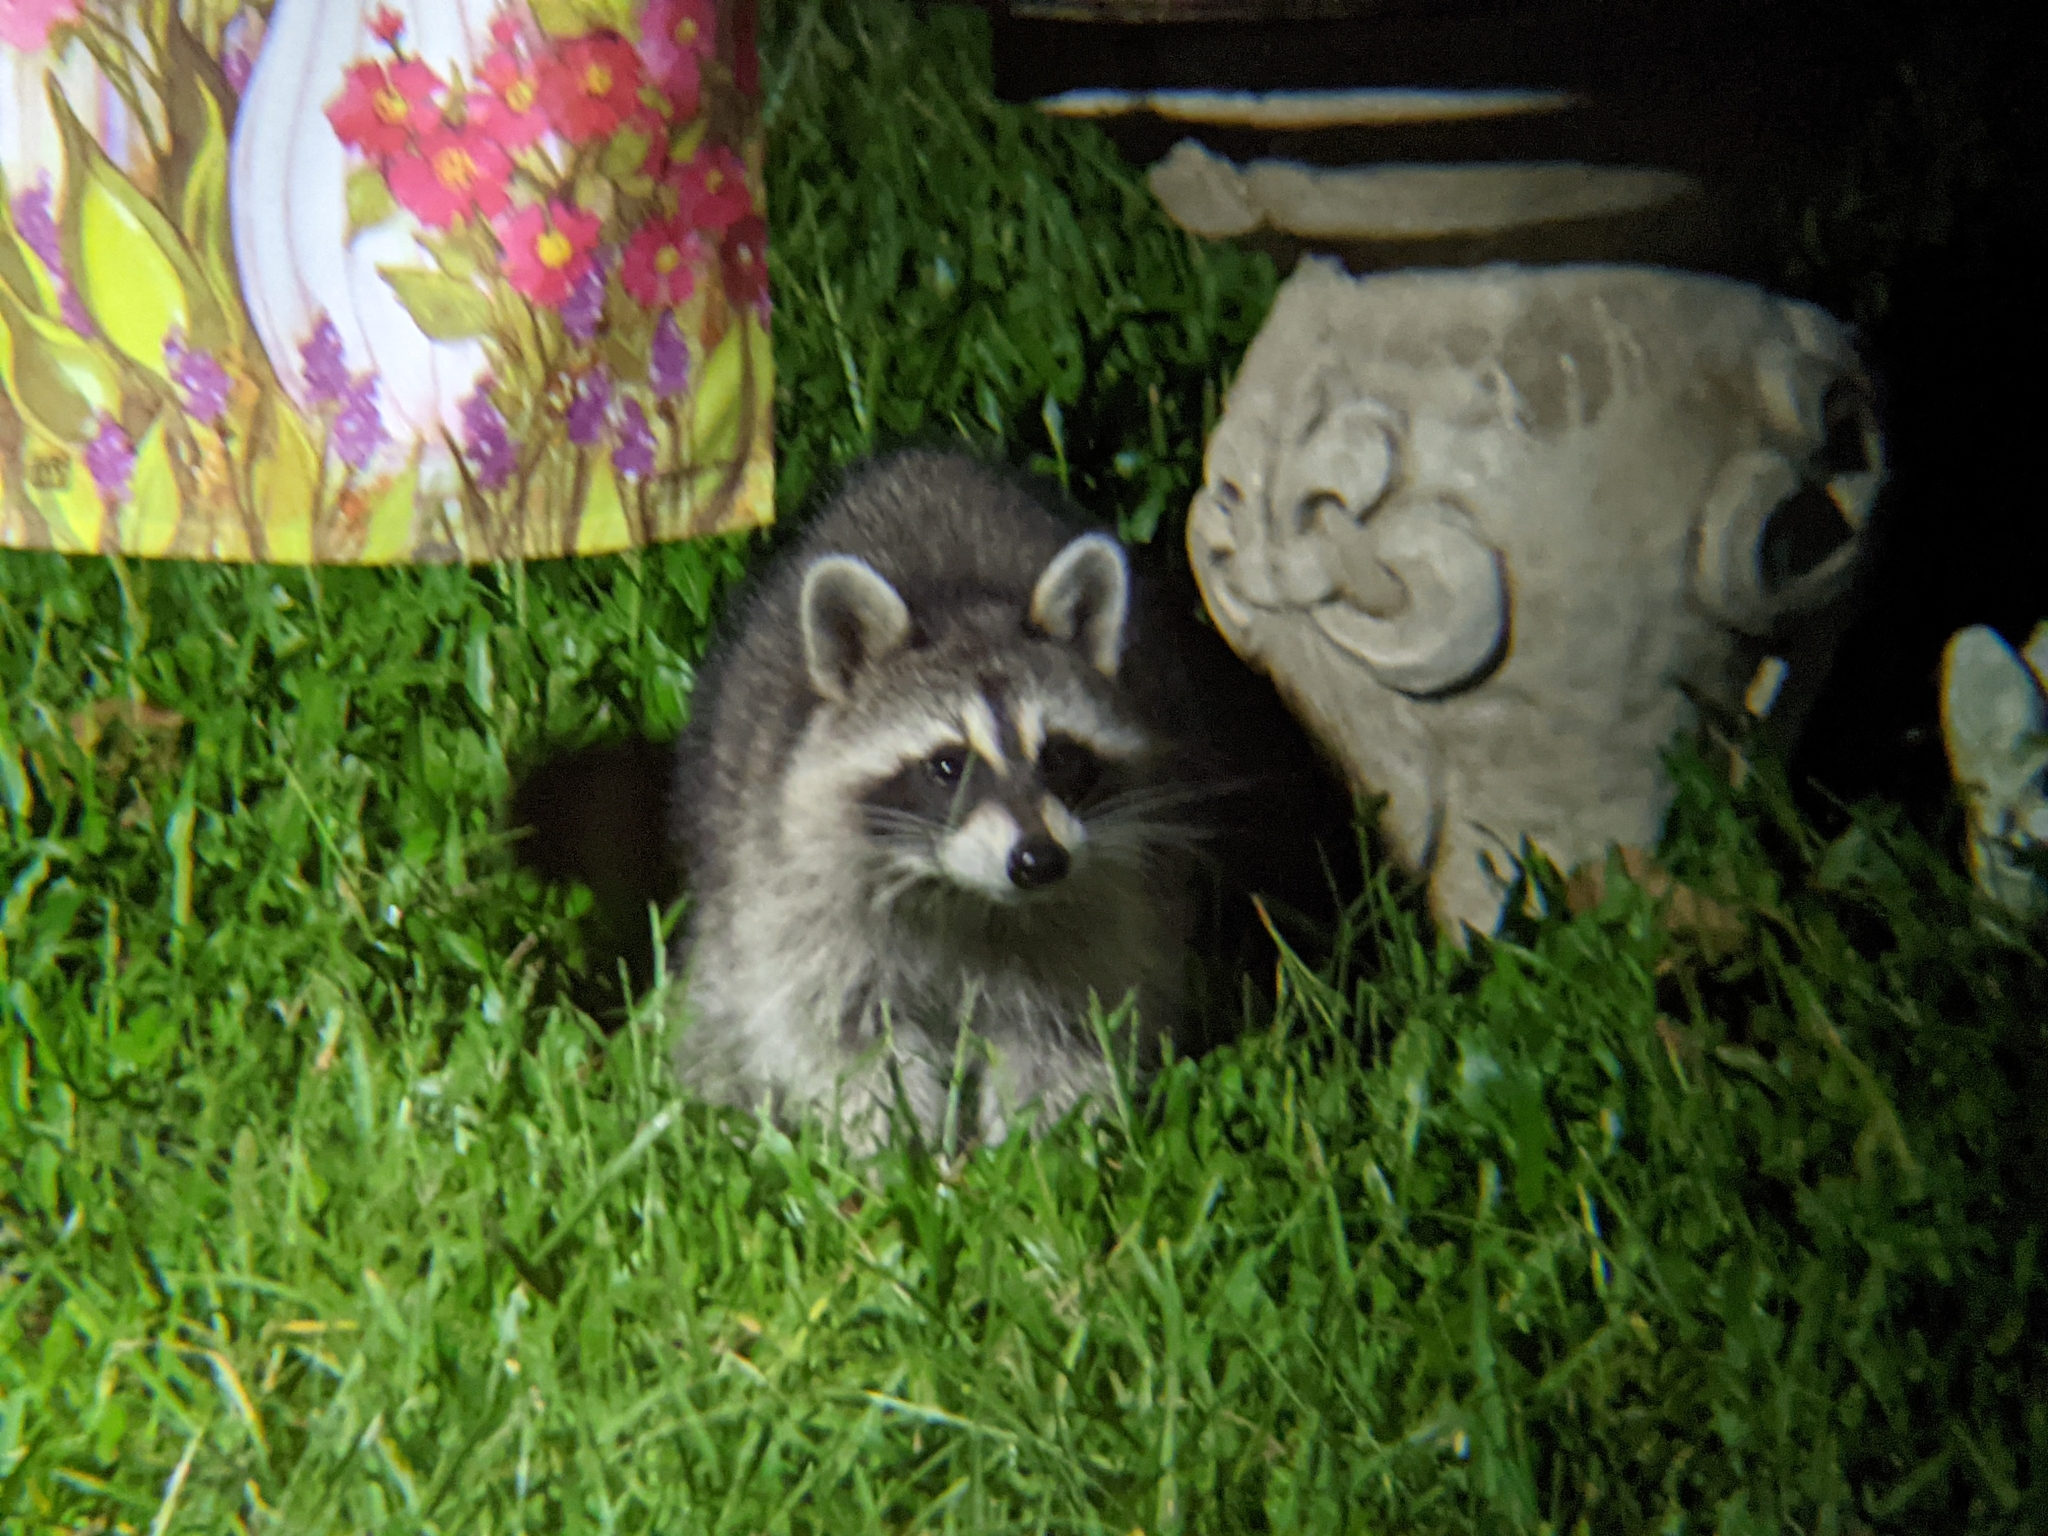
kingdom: Animalia
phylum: Chordata
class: Mammalia
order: Carnivora
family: Procyonidae
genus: Procyon
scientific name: Procyon lotor
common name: Raccoon
